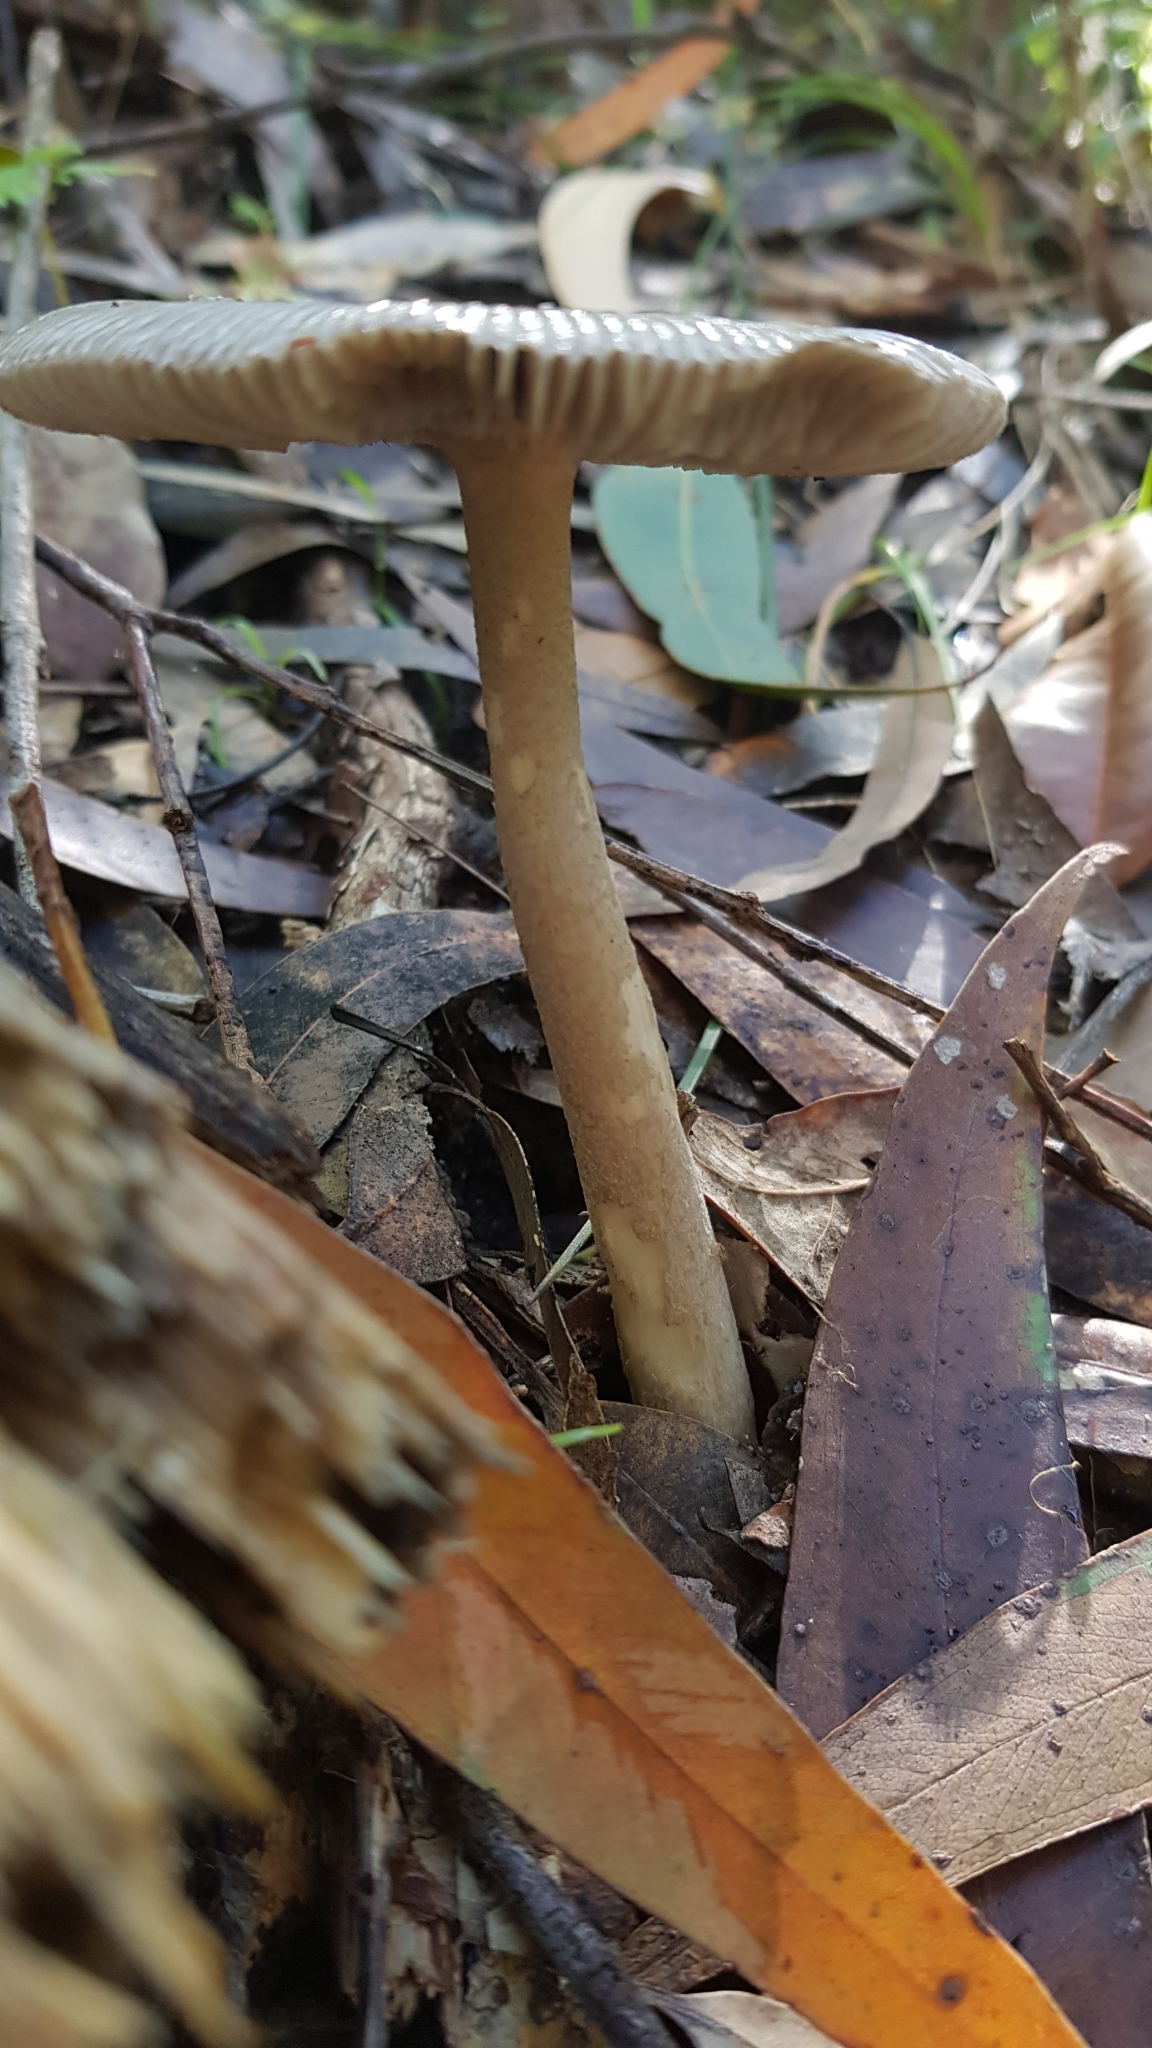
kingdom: Fungi
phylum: Basidiomycota
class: Agaricomycetes
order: Agaricales
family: Amanitaceae
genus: Amanita
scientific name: Amanita cheelii
